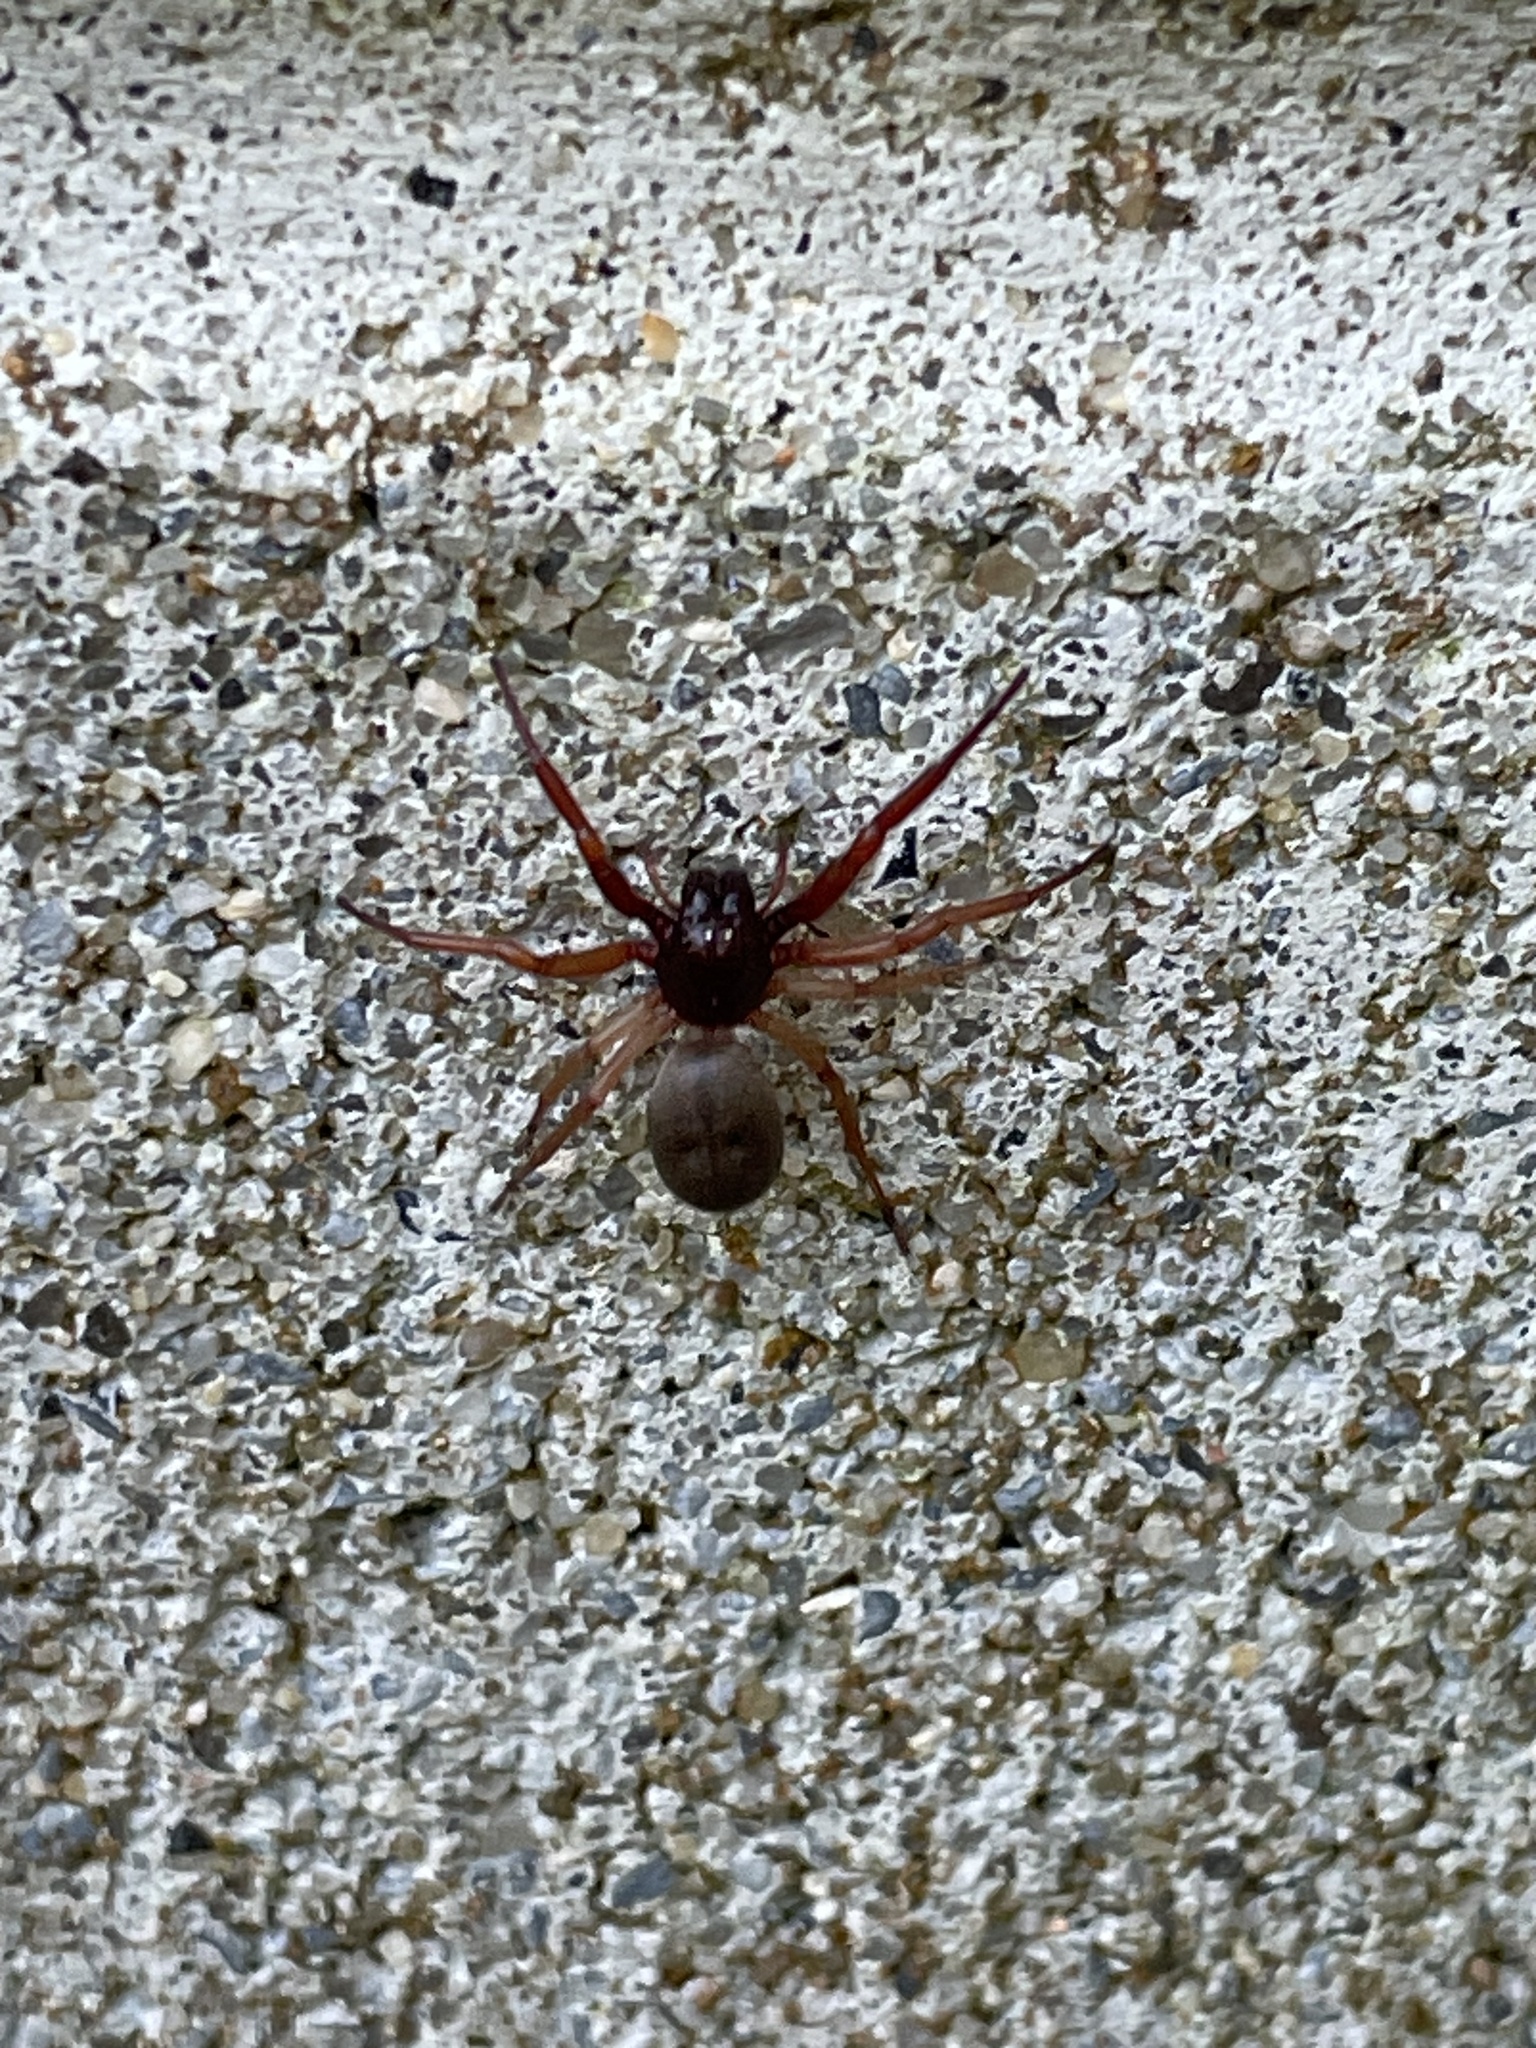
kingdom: Animalia
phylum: Arthropoda
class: Arachnida
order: Araneae
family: Trachelidae
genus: Trachelas
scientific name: Trachelas tranquillus
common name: Broad-faced sac spider
